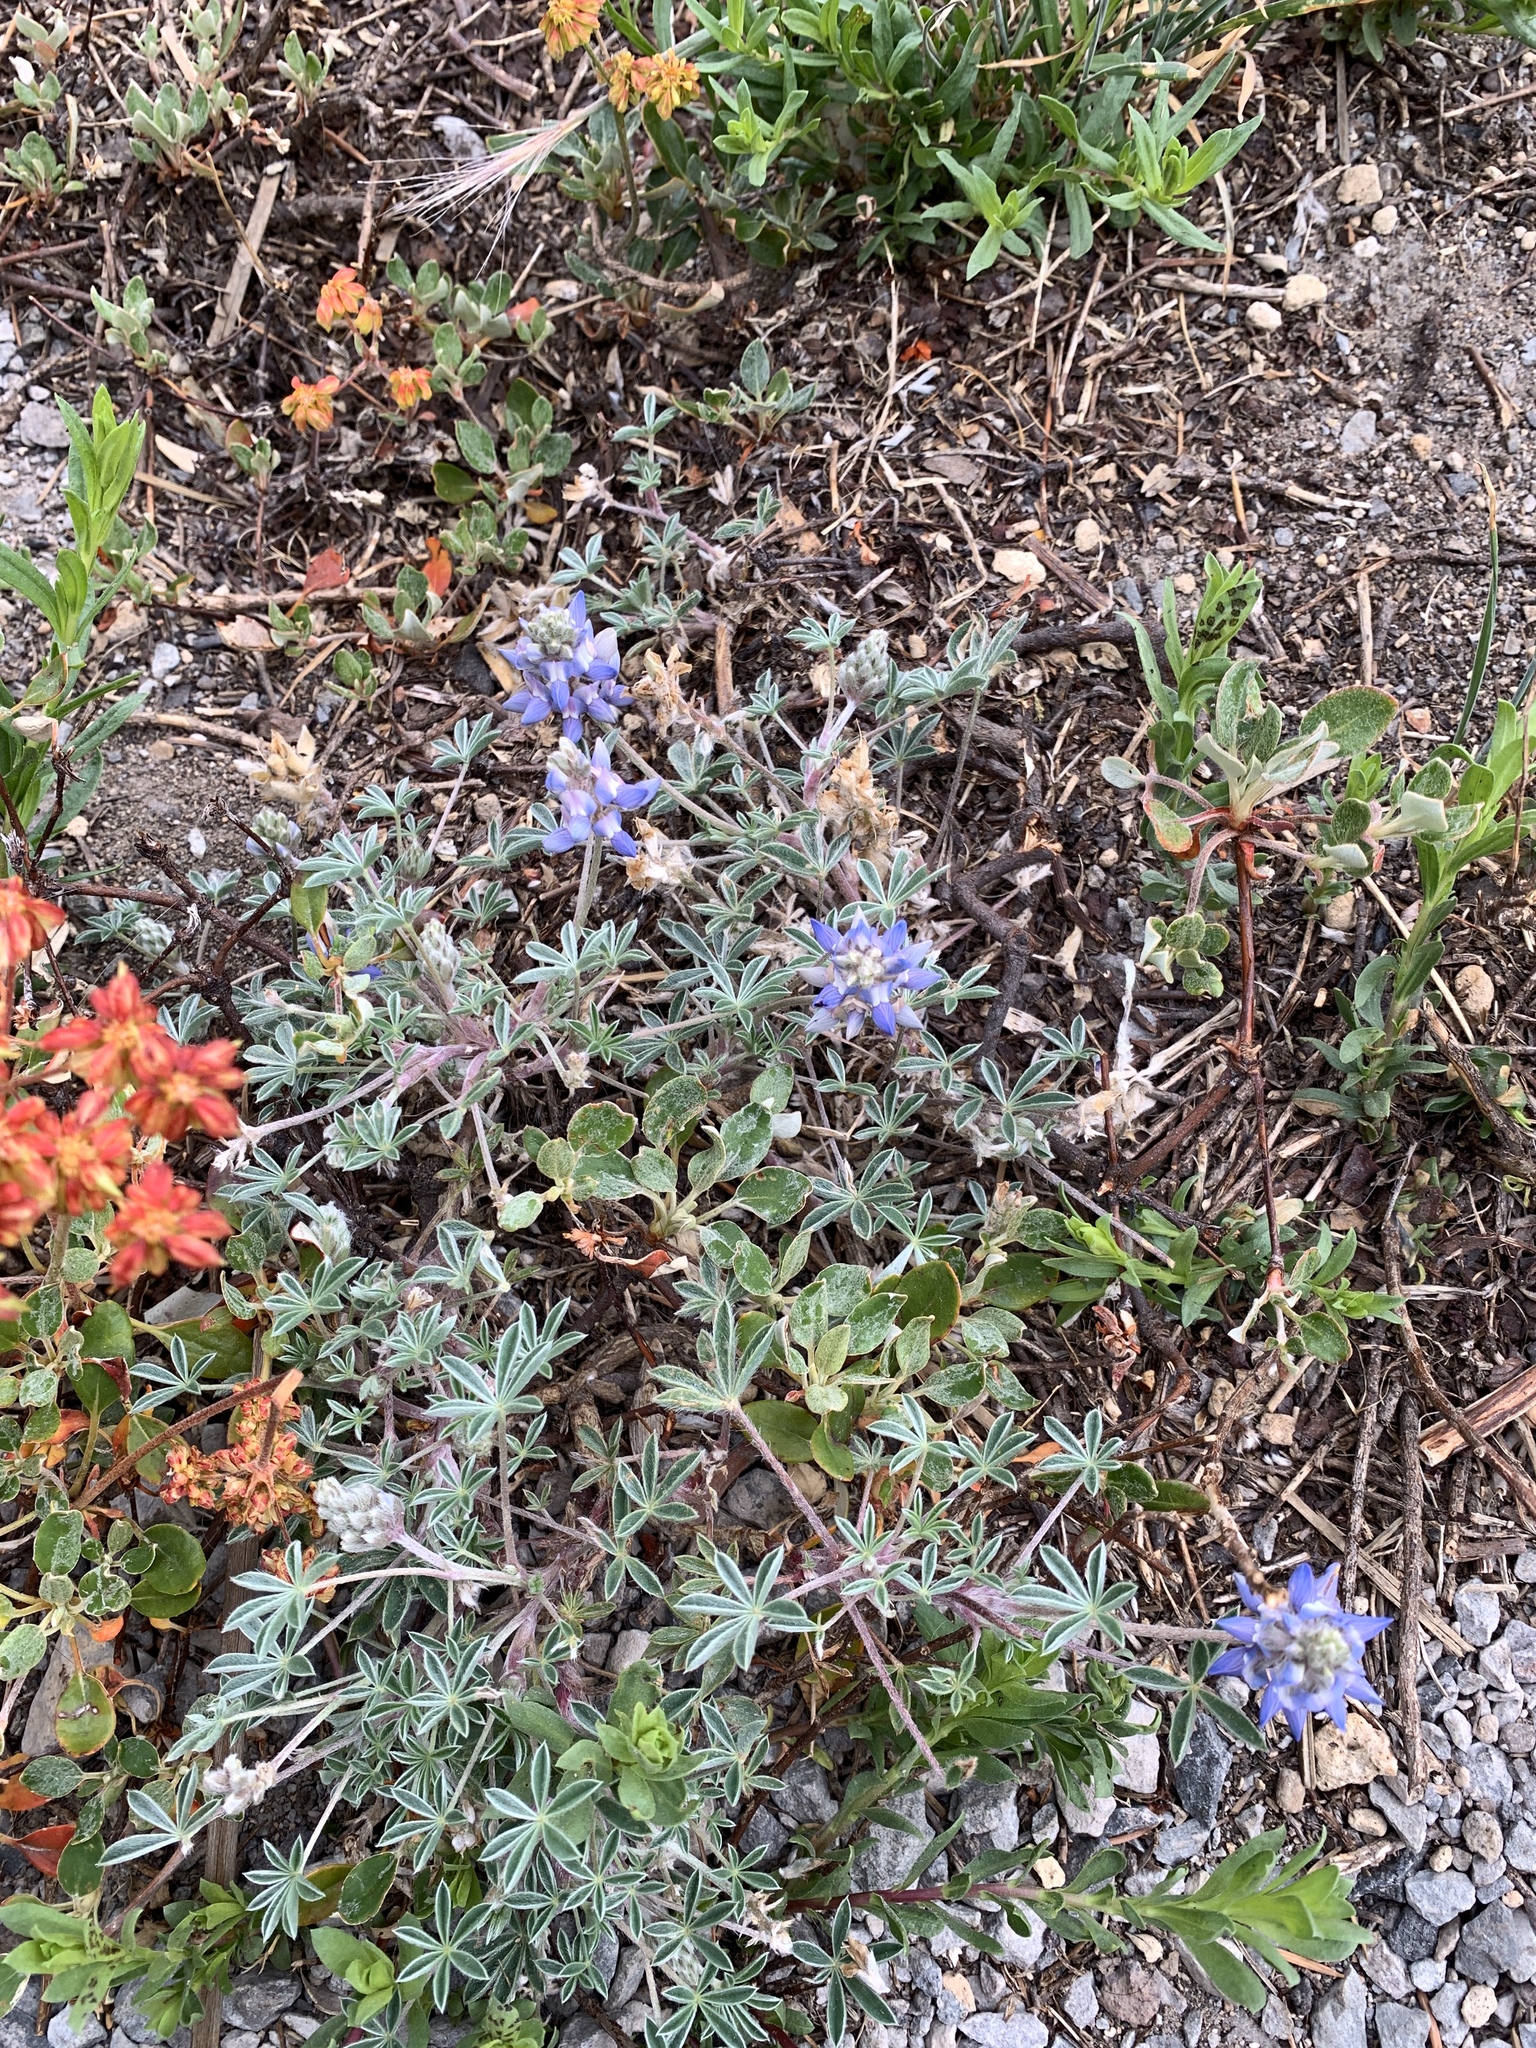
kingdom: Plantae
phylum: Tracheophyta
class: Magnoliopsida
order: Fabales
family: Fabaceae
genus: Lupinus
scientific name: Lupinus lepidus
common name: Prairie lupine
